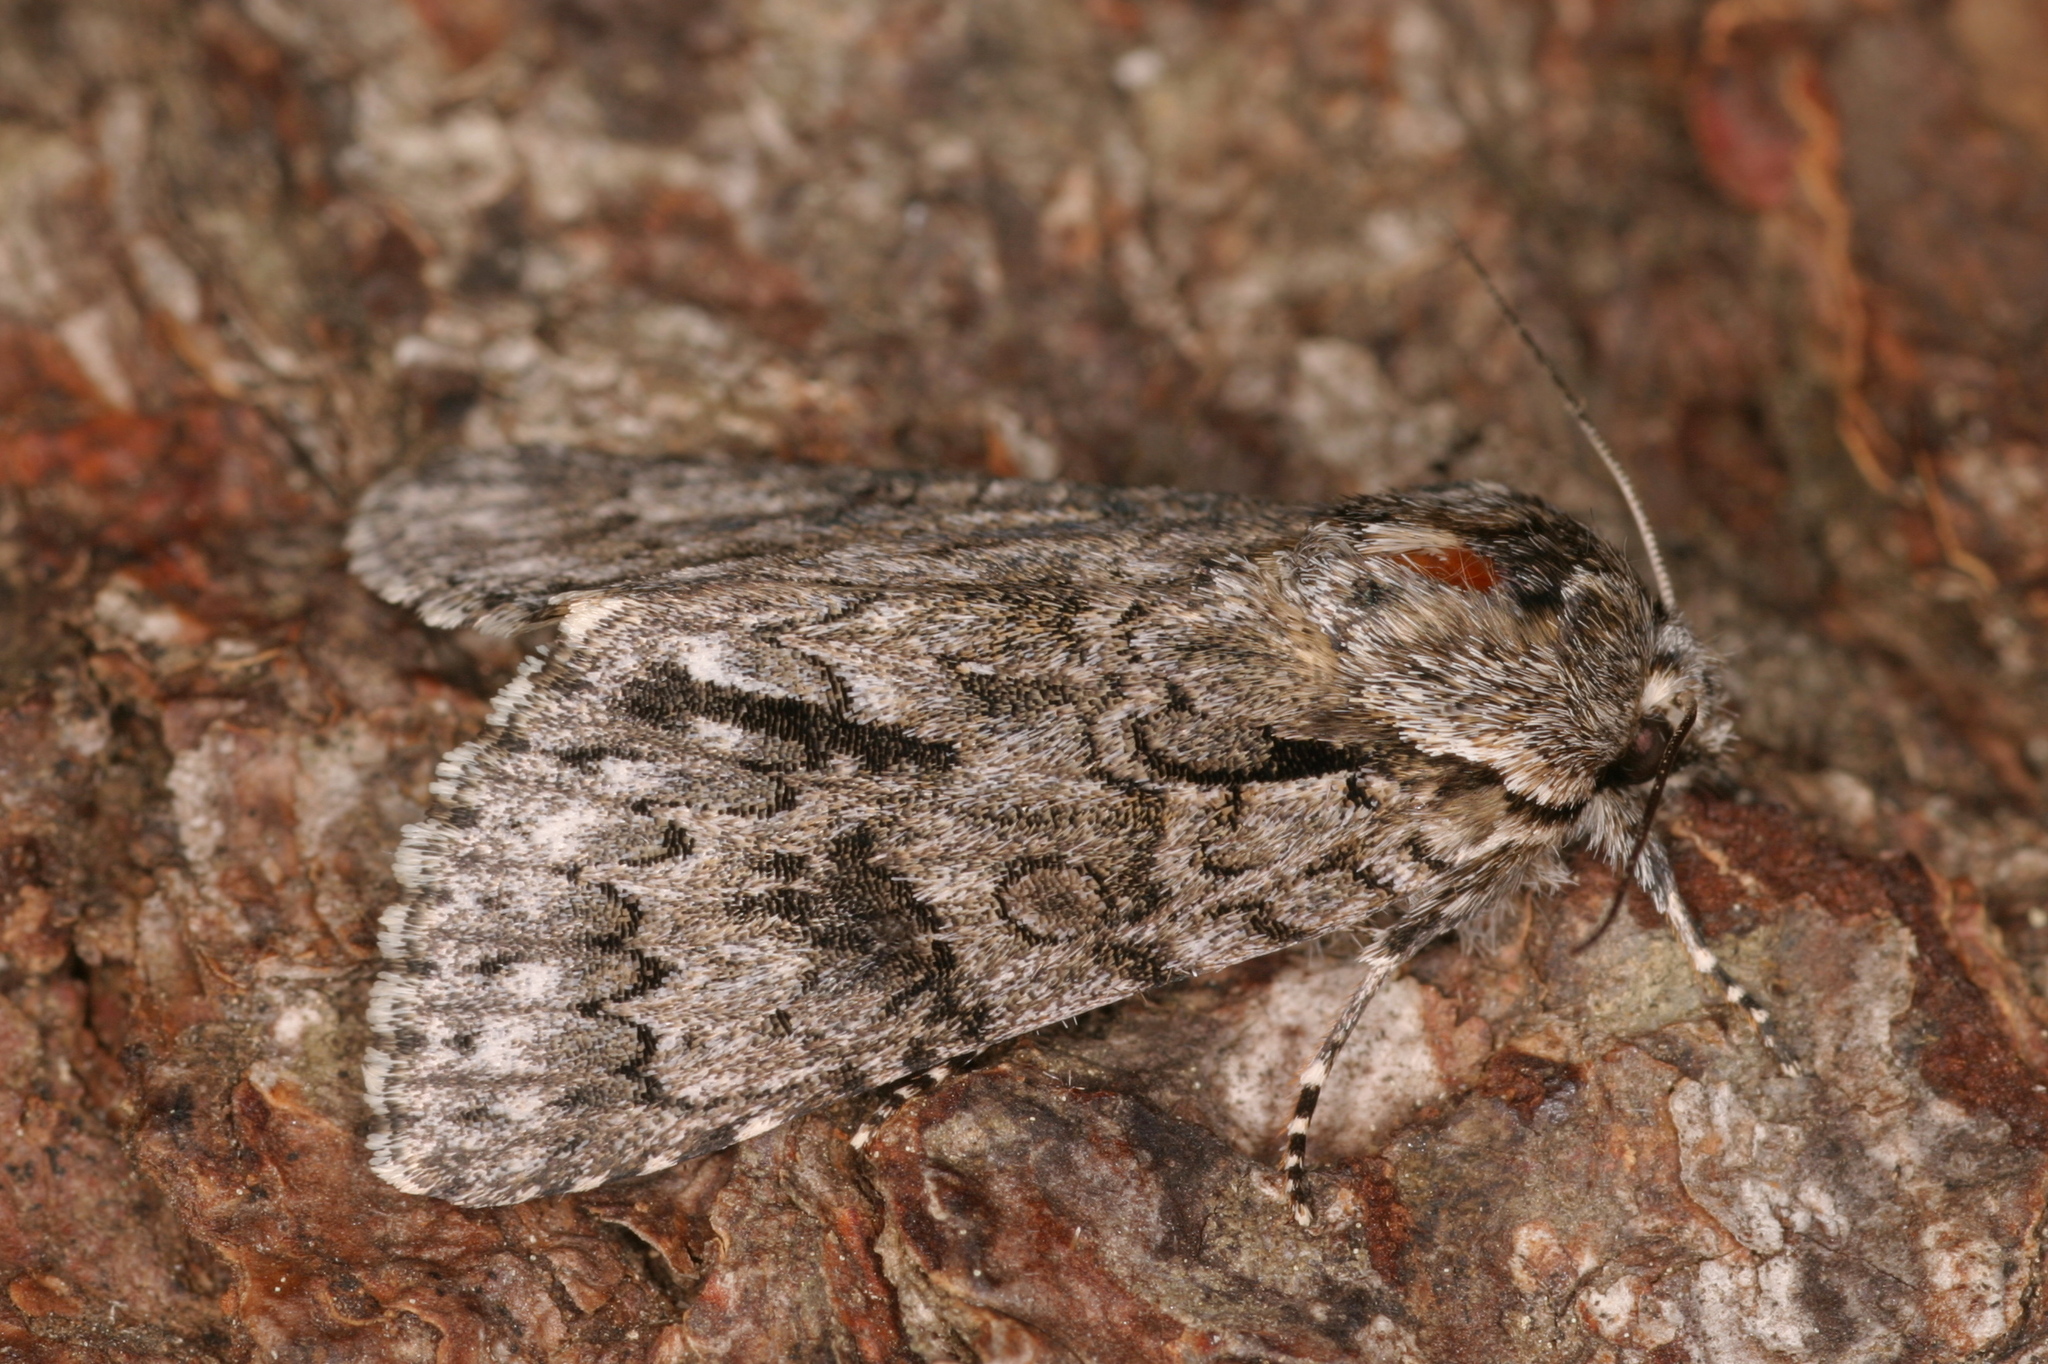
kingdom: Animalia
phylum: Arthropoda
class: Insecta
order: Lepidoptera
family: Noctuidae
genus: Acronicta
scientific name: Acronicta auricoma
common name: Scarce dagger
